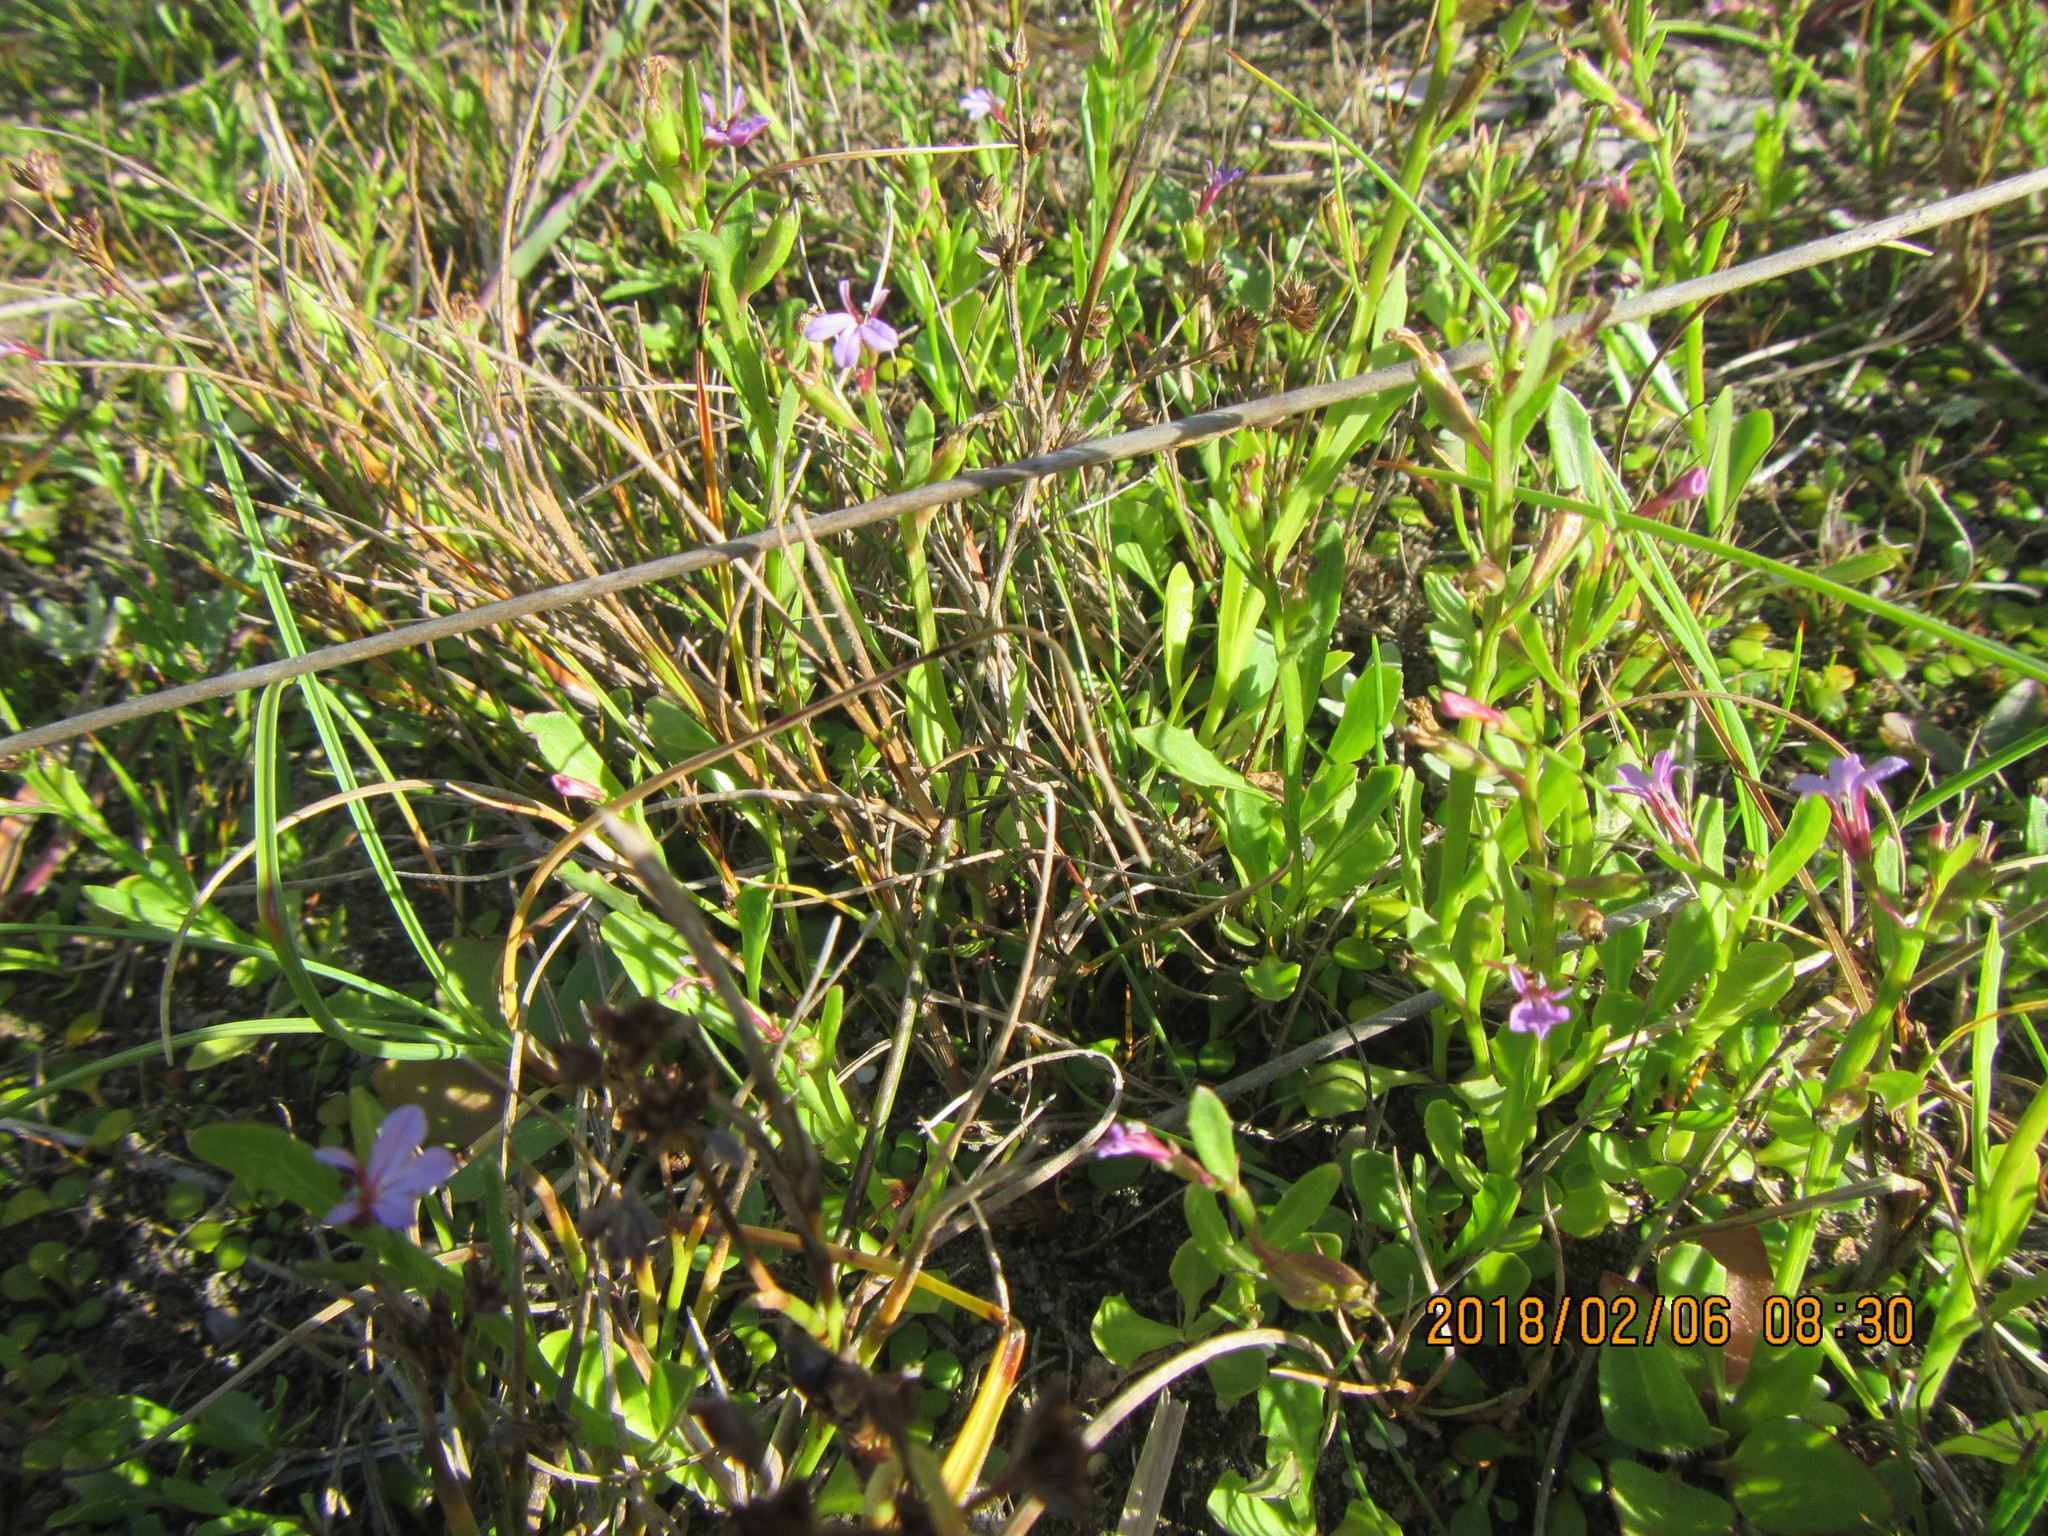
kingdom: Plantae
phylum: Tracheophyta
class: Magnoliopsida
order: Asterales
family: Campanulaceae
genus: Lobelia
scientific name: Lobelia anceps
